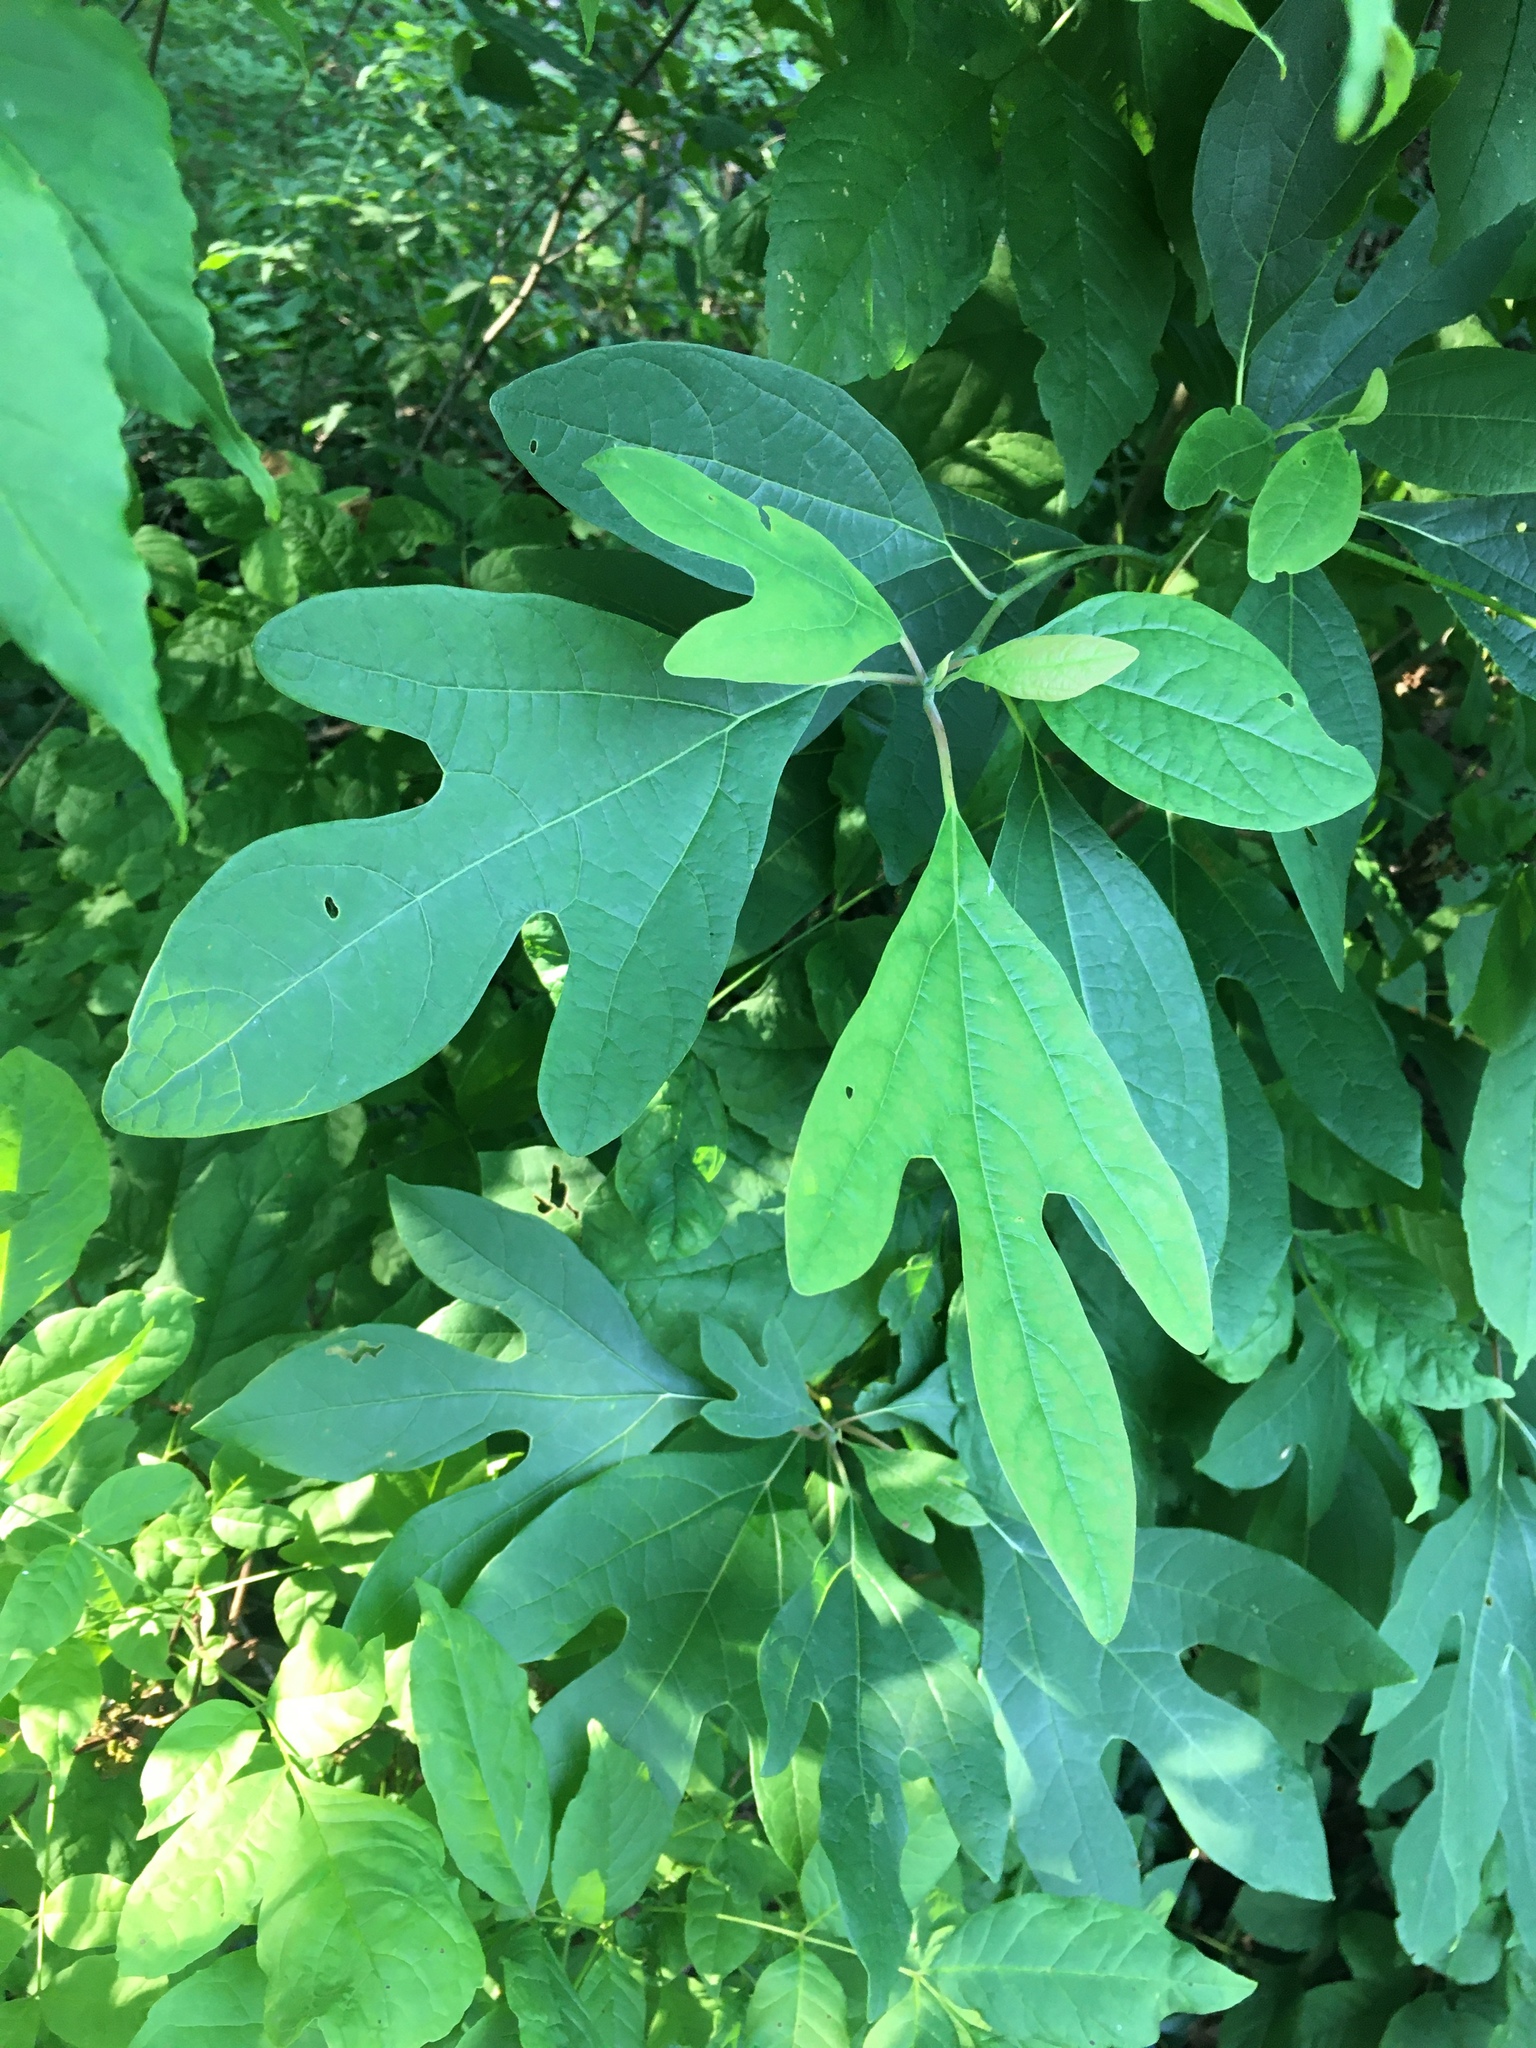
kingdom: Plantae
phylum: Tracheophyta
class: Magnoliopsida
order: Laurales
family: Lauraceae
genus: Sassafras
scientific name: Sassafras albidum
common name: Sassafras
